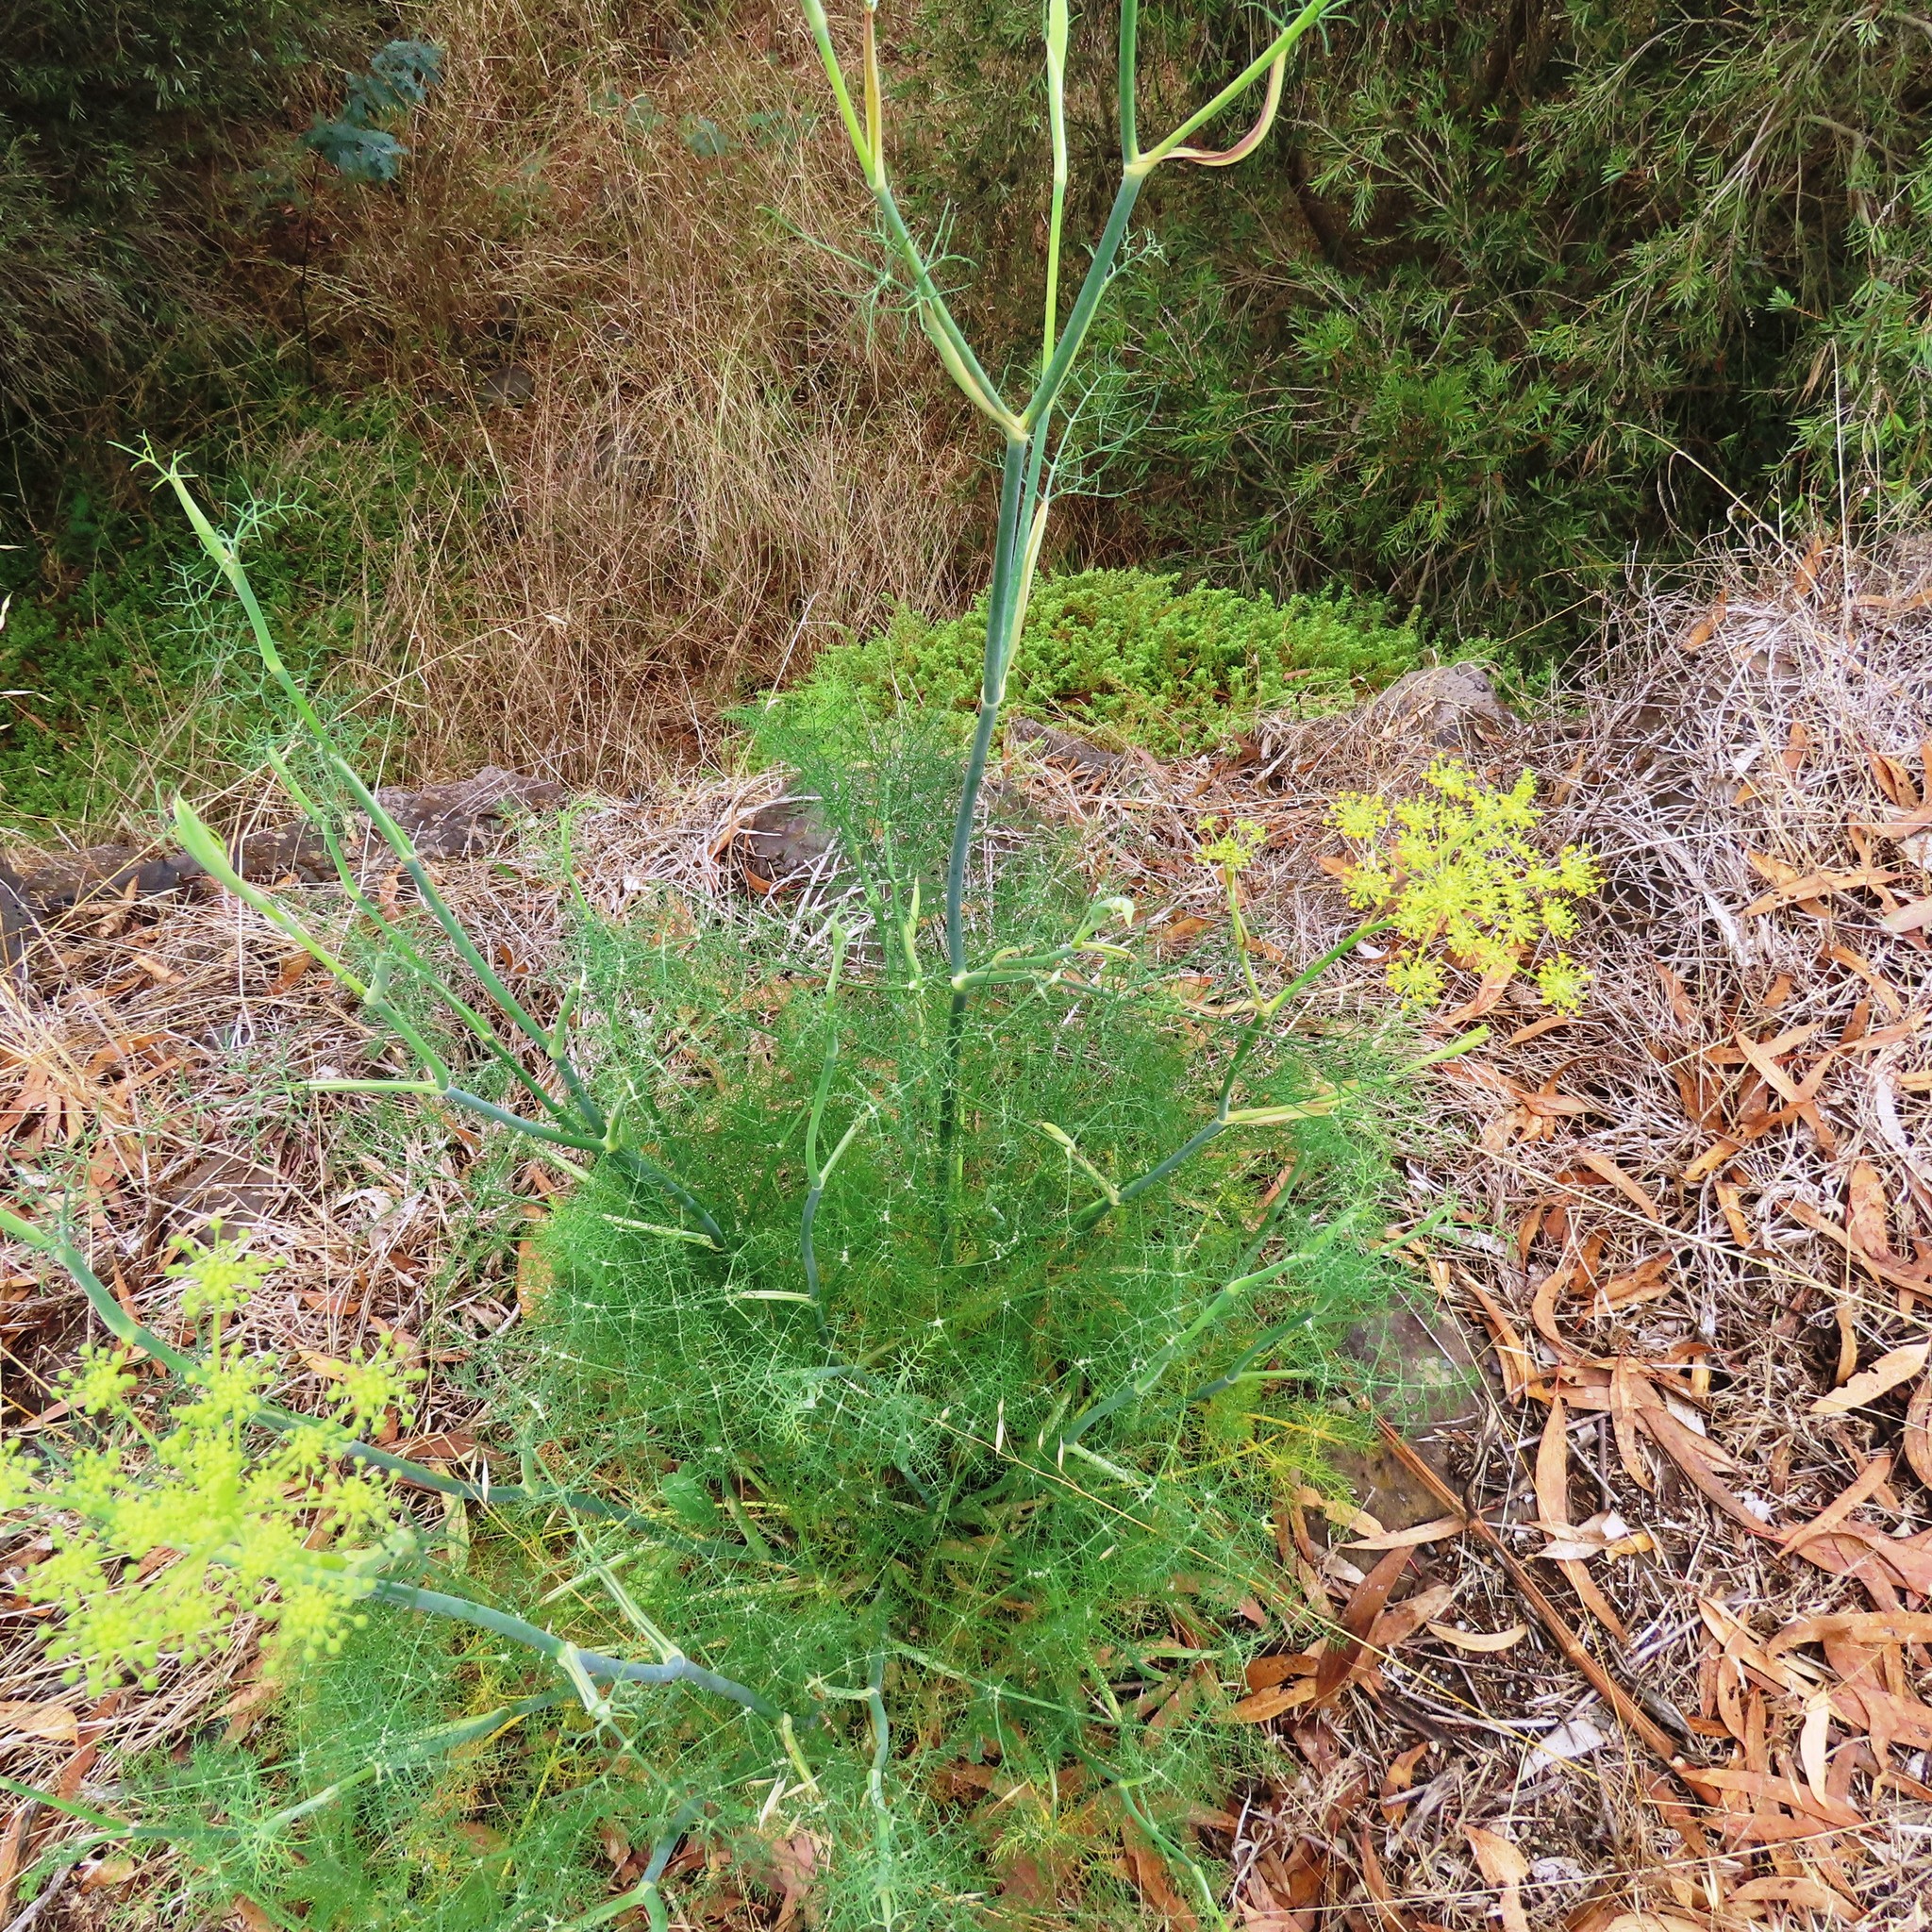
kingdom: Plantae
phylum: Tracheophyta
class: Magnoliopsida
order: Apiales
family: Apiaceae
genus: Foeniculum
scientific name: Foeniculum vulgare
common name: Fennel
